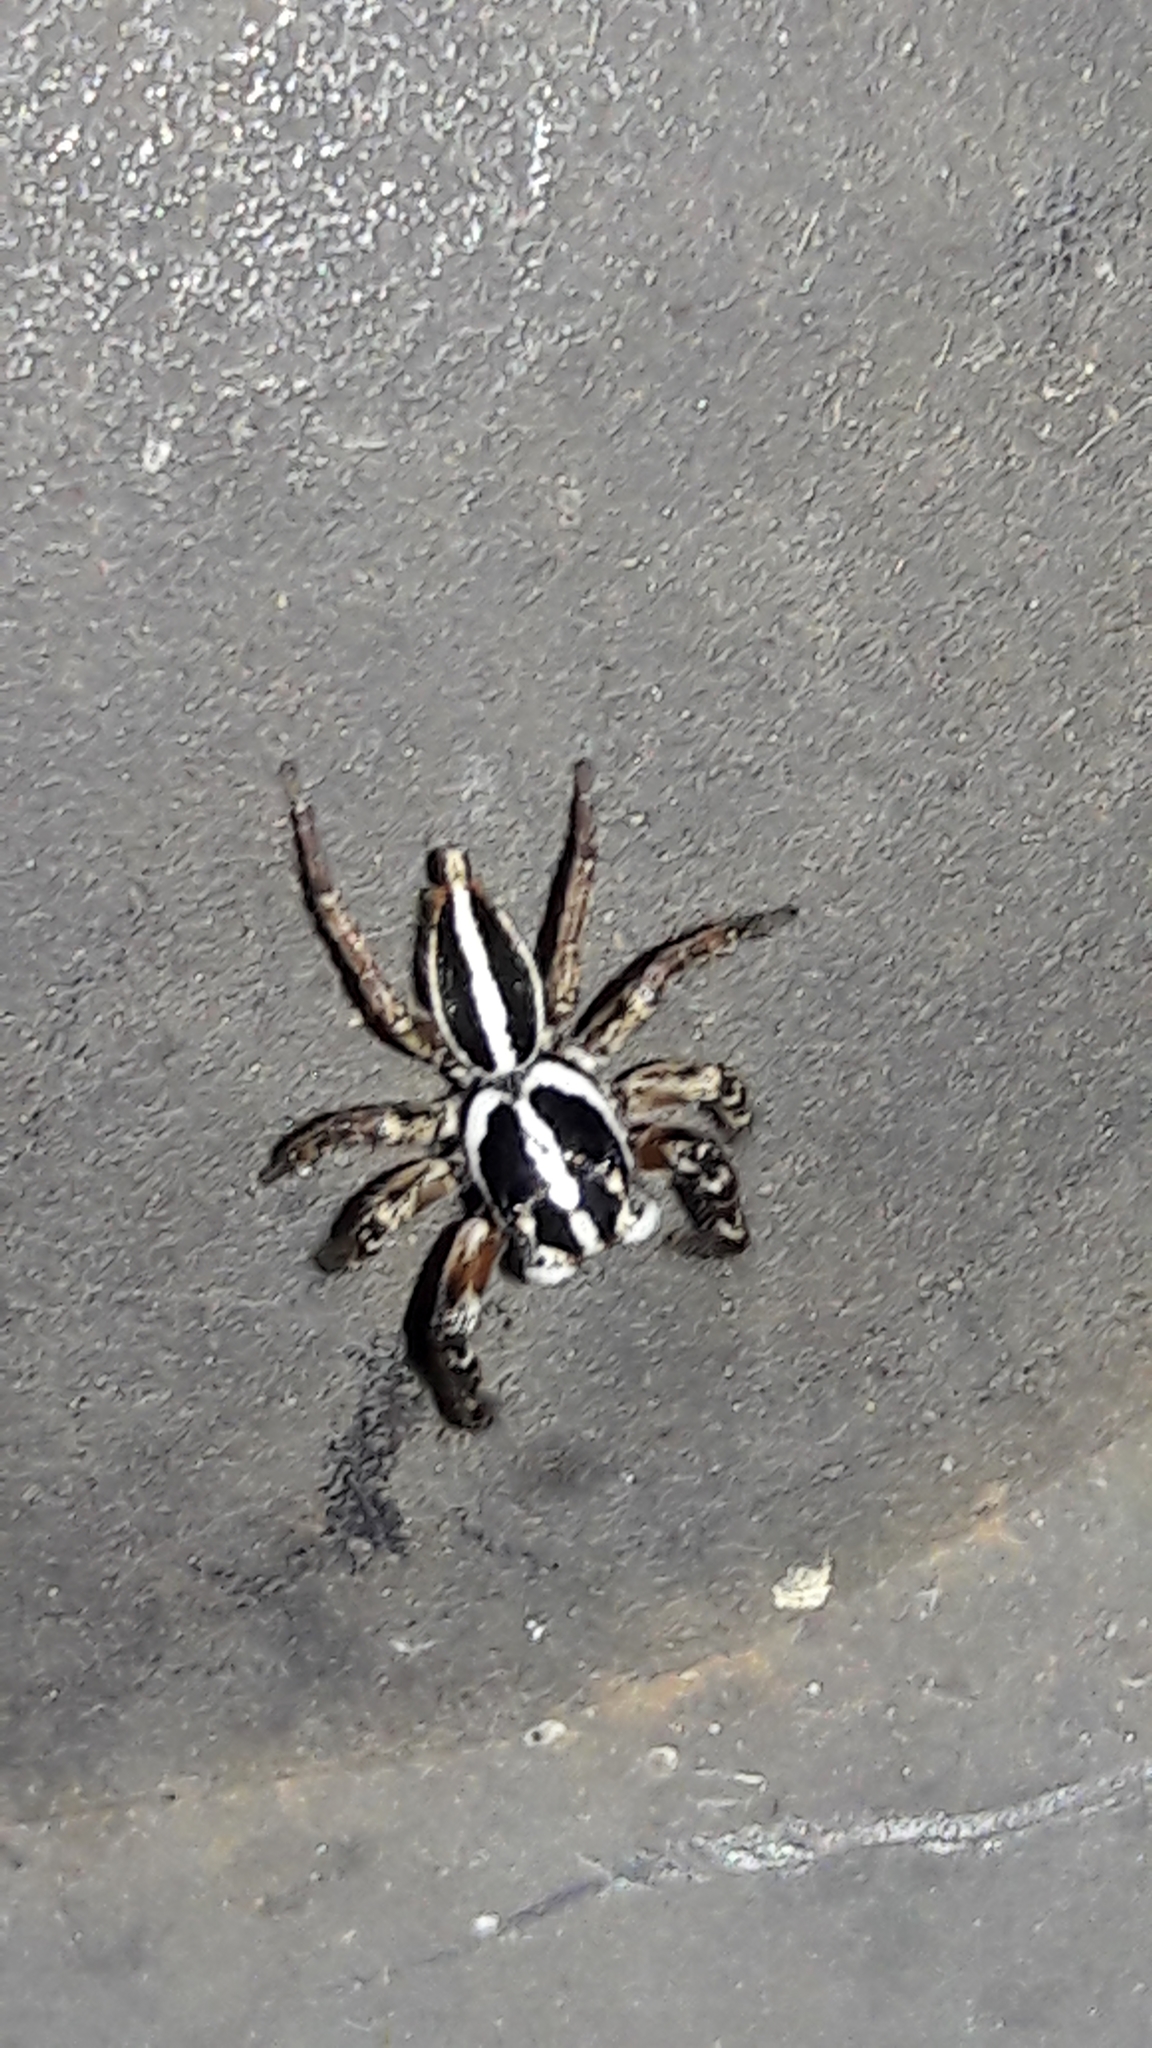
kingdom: Animalia
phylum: Arthropoda
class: Arachnida
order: Araneae
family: Salticidae
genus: Freya
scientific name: Freya nigrotaeniata
